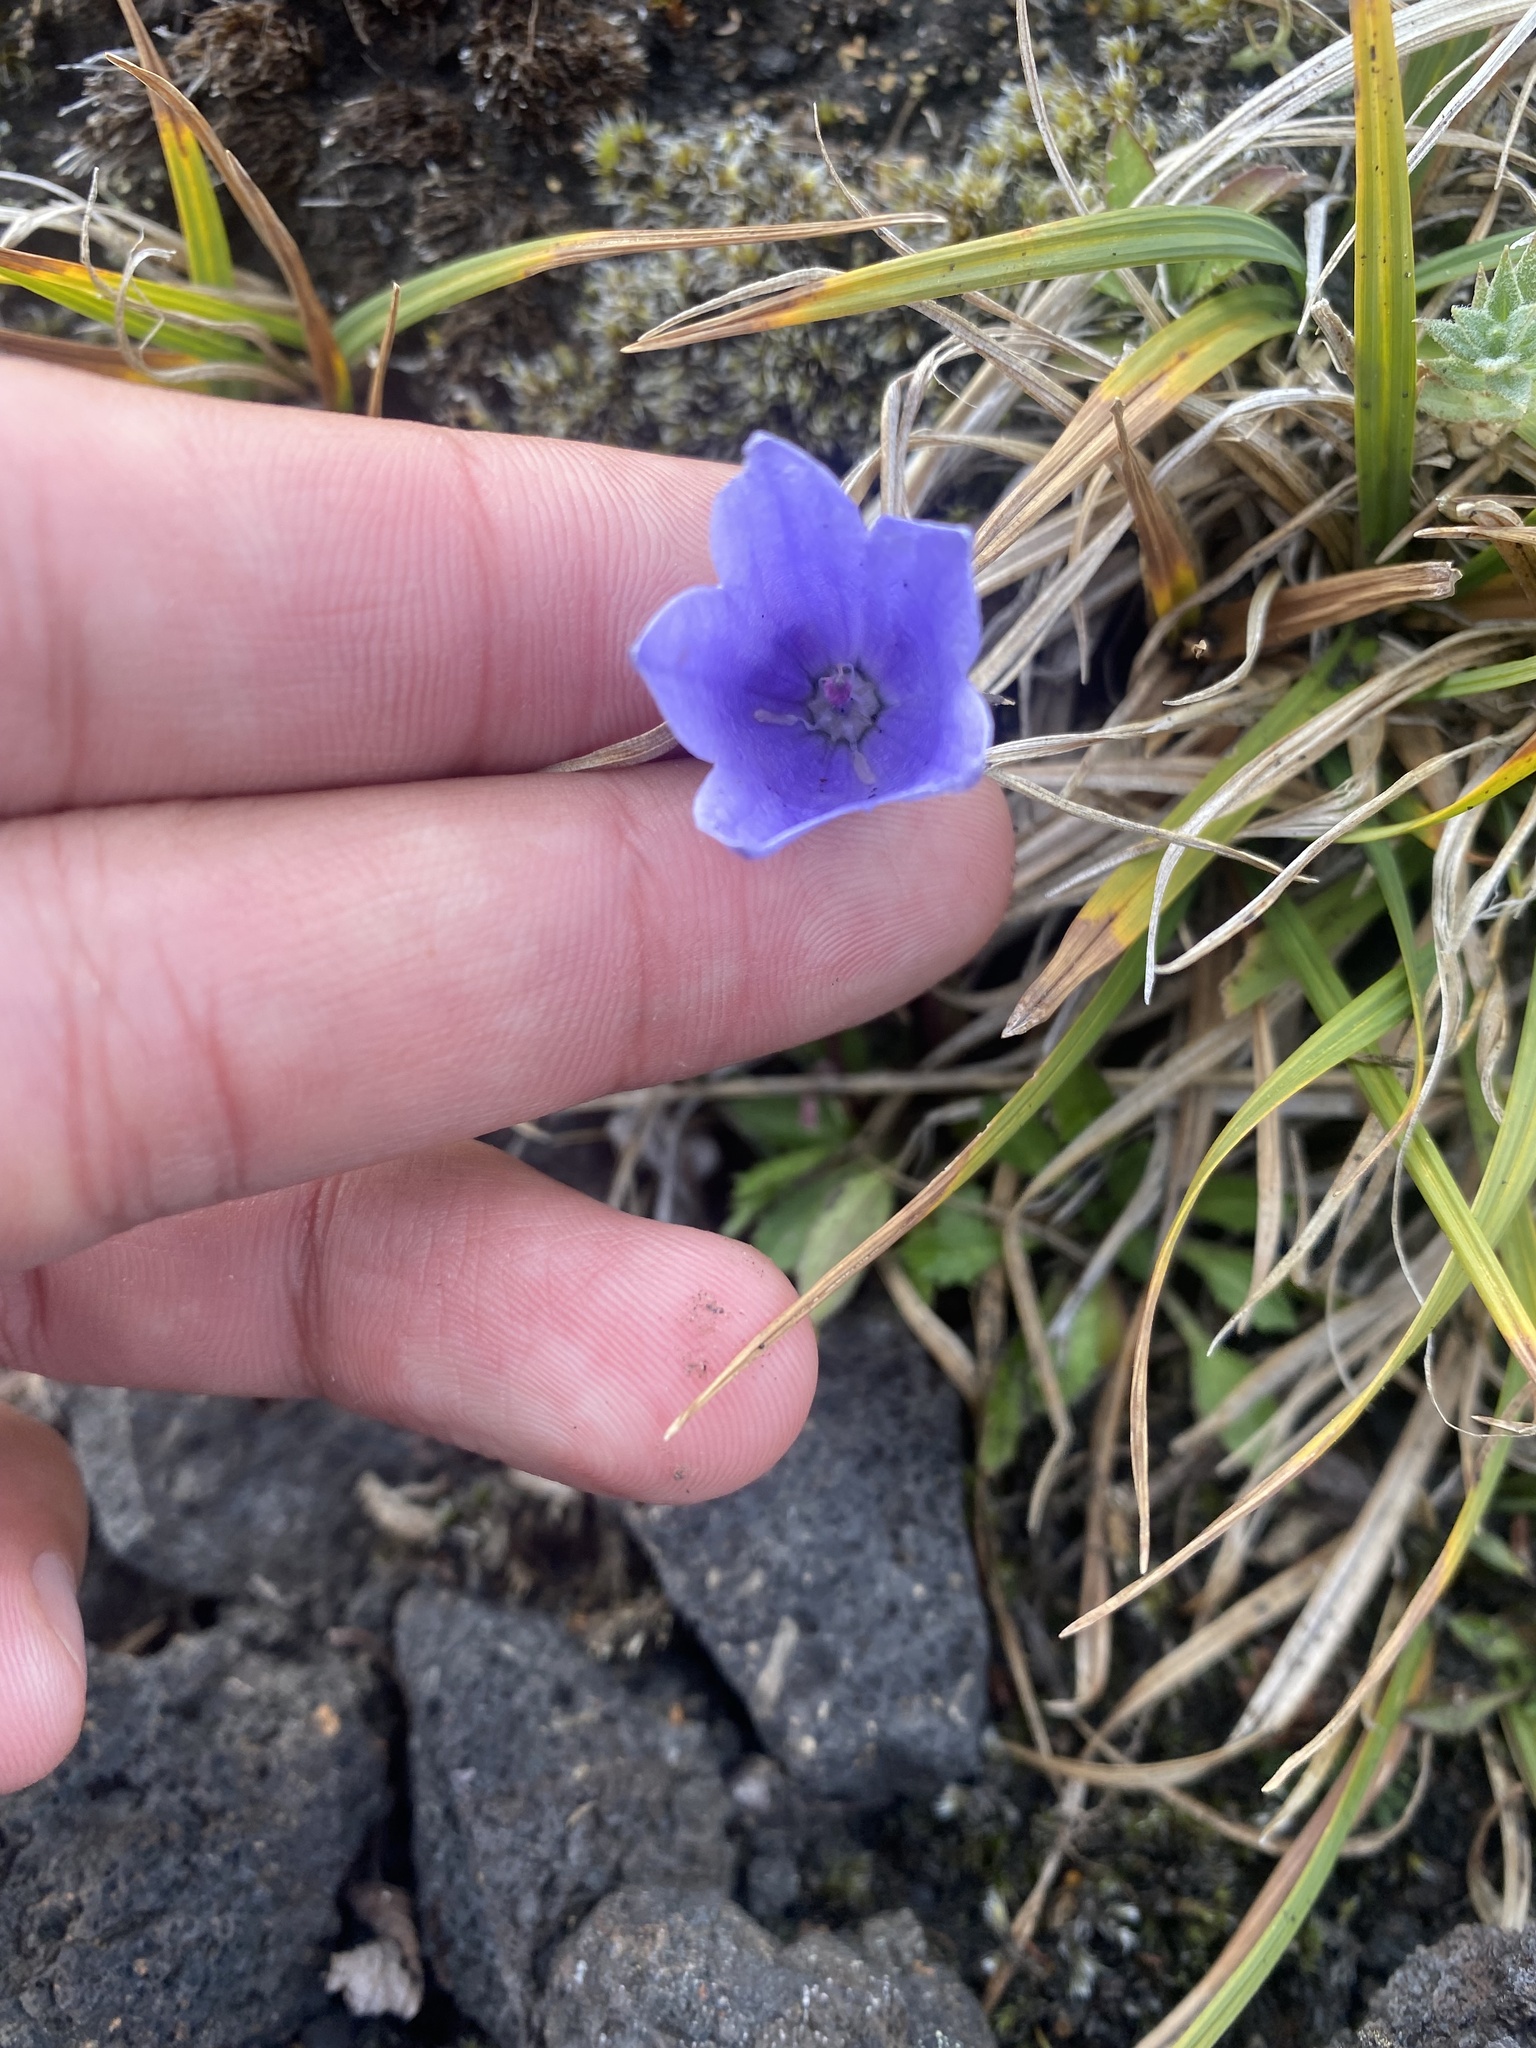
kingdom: Plantae
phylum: Tracheophyta
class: Magnoliopsida
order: Asterales
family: Campanulaceae
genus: Campanula
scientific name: Campanula lasiocarpa
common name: Mountain harebell
